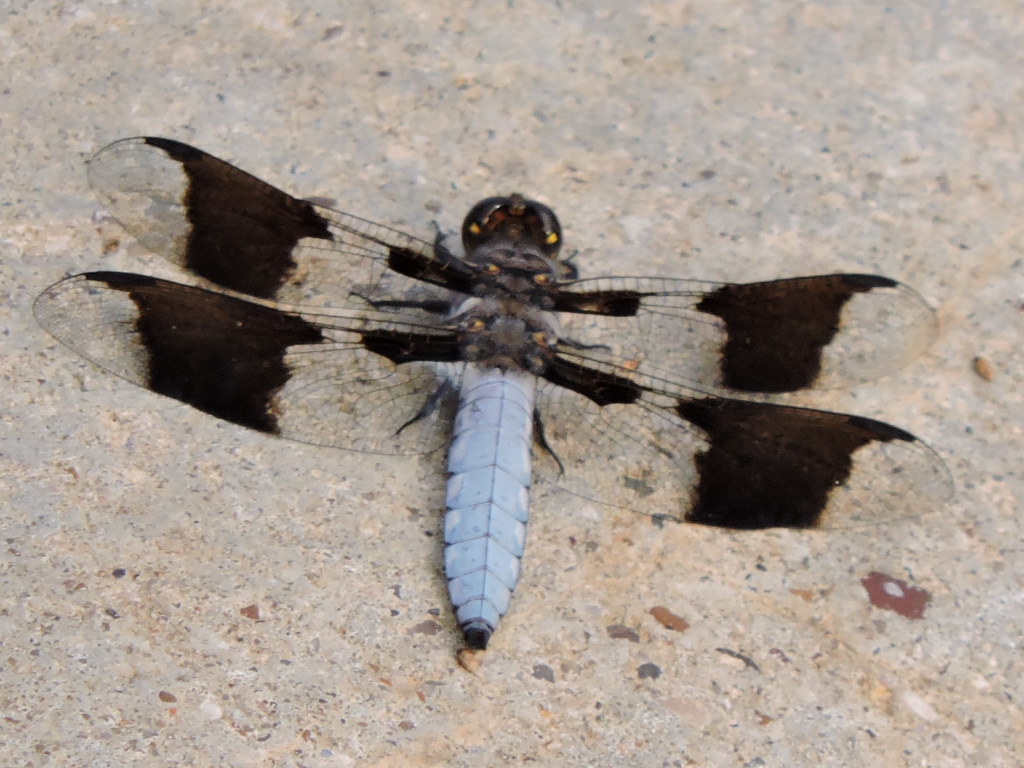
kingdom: Animalia
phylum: Arthropoda
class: Insecta
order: Odonata
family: Libellulidae
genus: Plathemis
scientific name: Plathemis lydia
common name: Common whitetail
